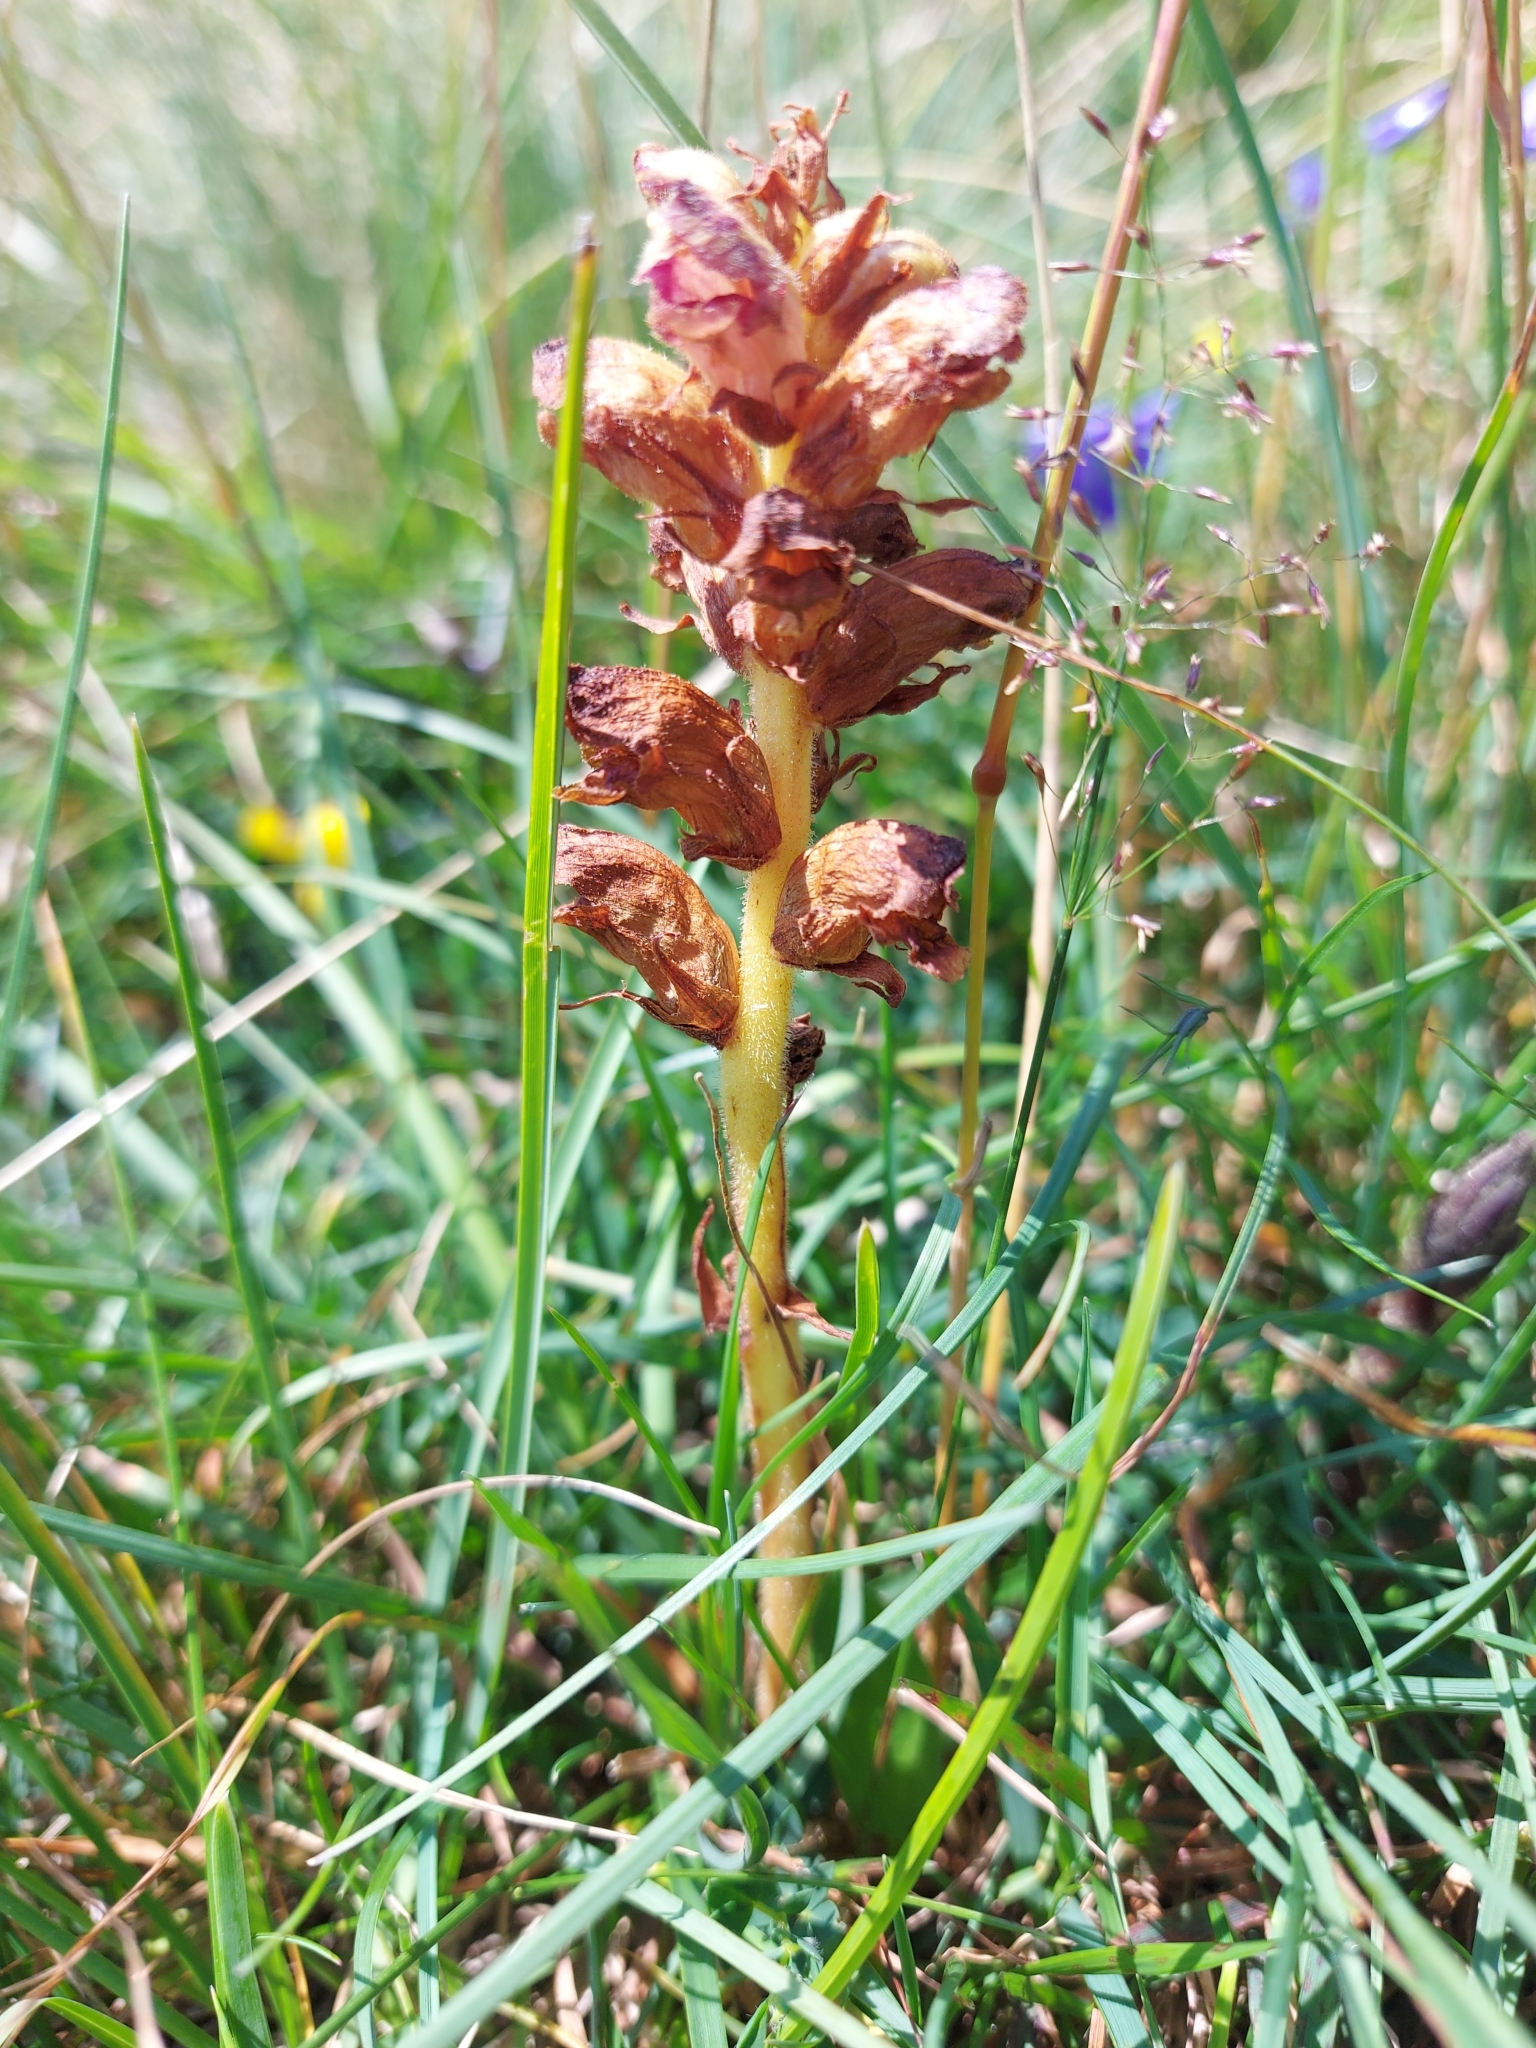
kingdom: Plantae
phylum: Tracheophyta
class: Magnoliopsida
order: Lamiales
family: Orobanchaceae
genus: Orobanche
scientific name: Orobanche gracilis
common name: Slender broomrape
